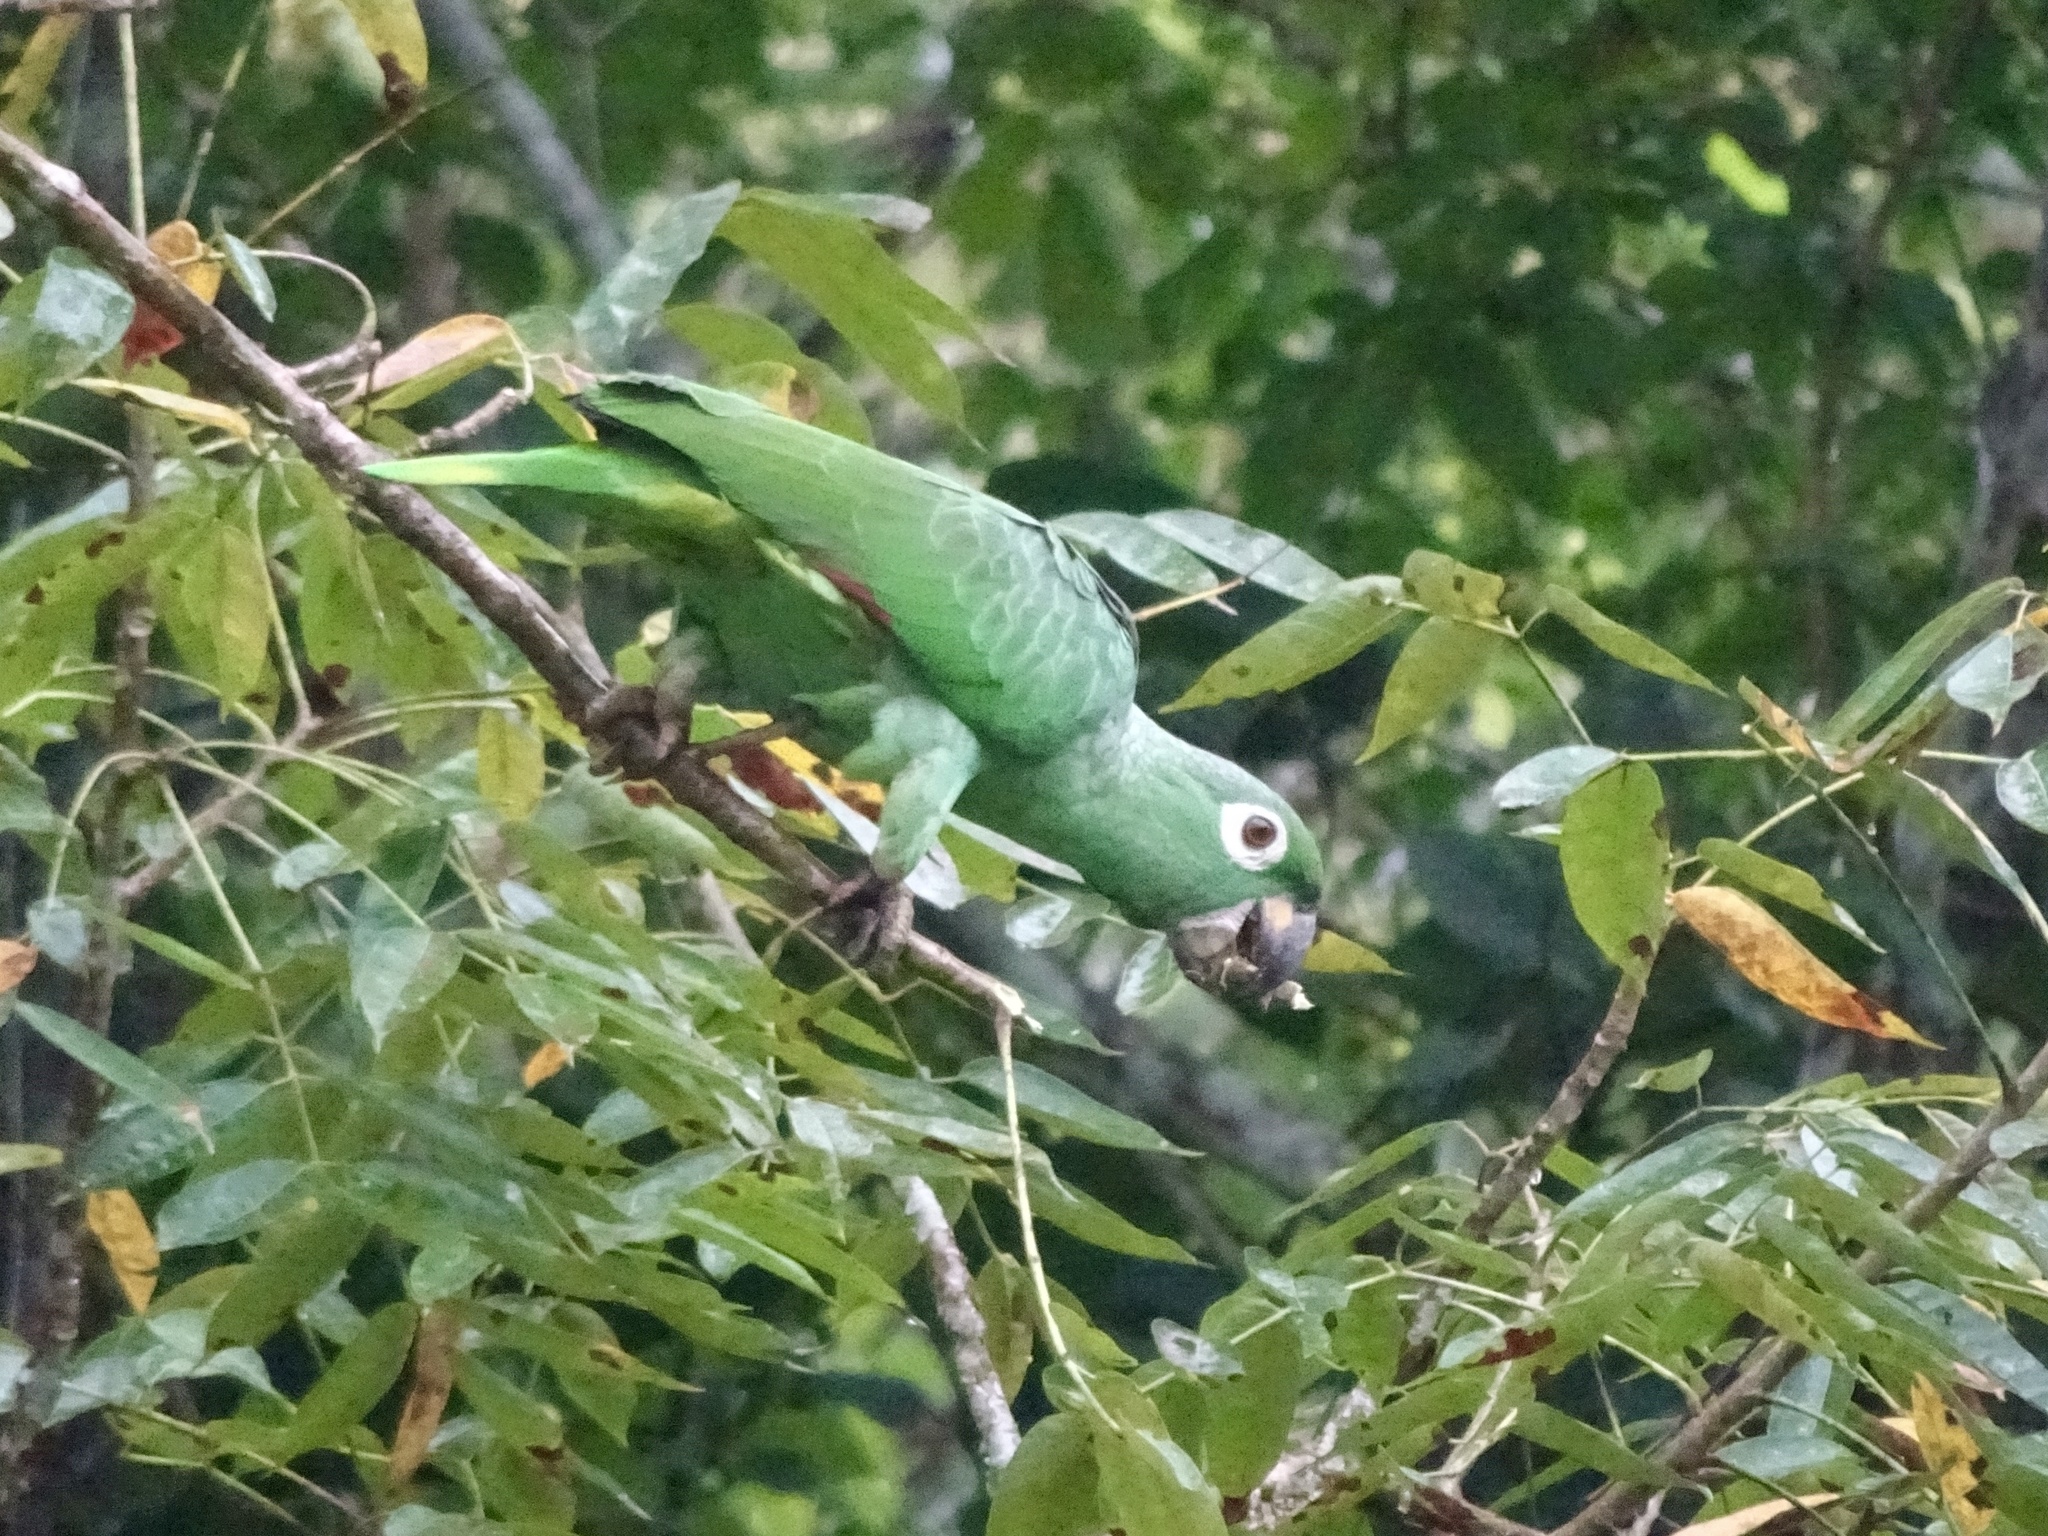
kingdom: Animalia
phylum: Chordata
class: Aves
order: Psittaciformes
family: Psittacidae
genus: Amazona
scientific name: Amazona farinosa
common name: Mealy parrot
